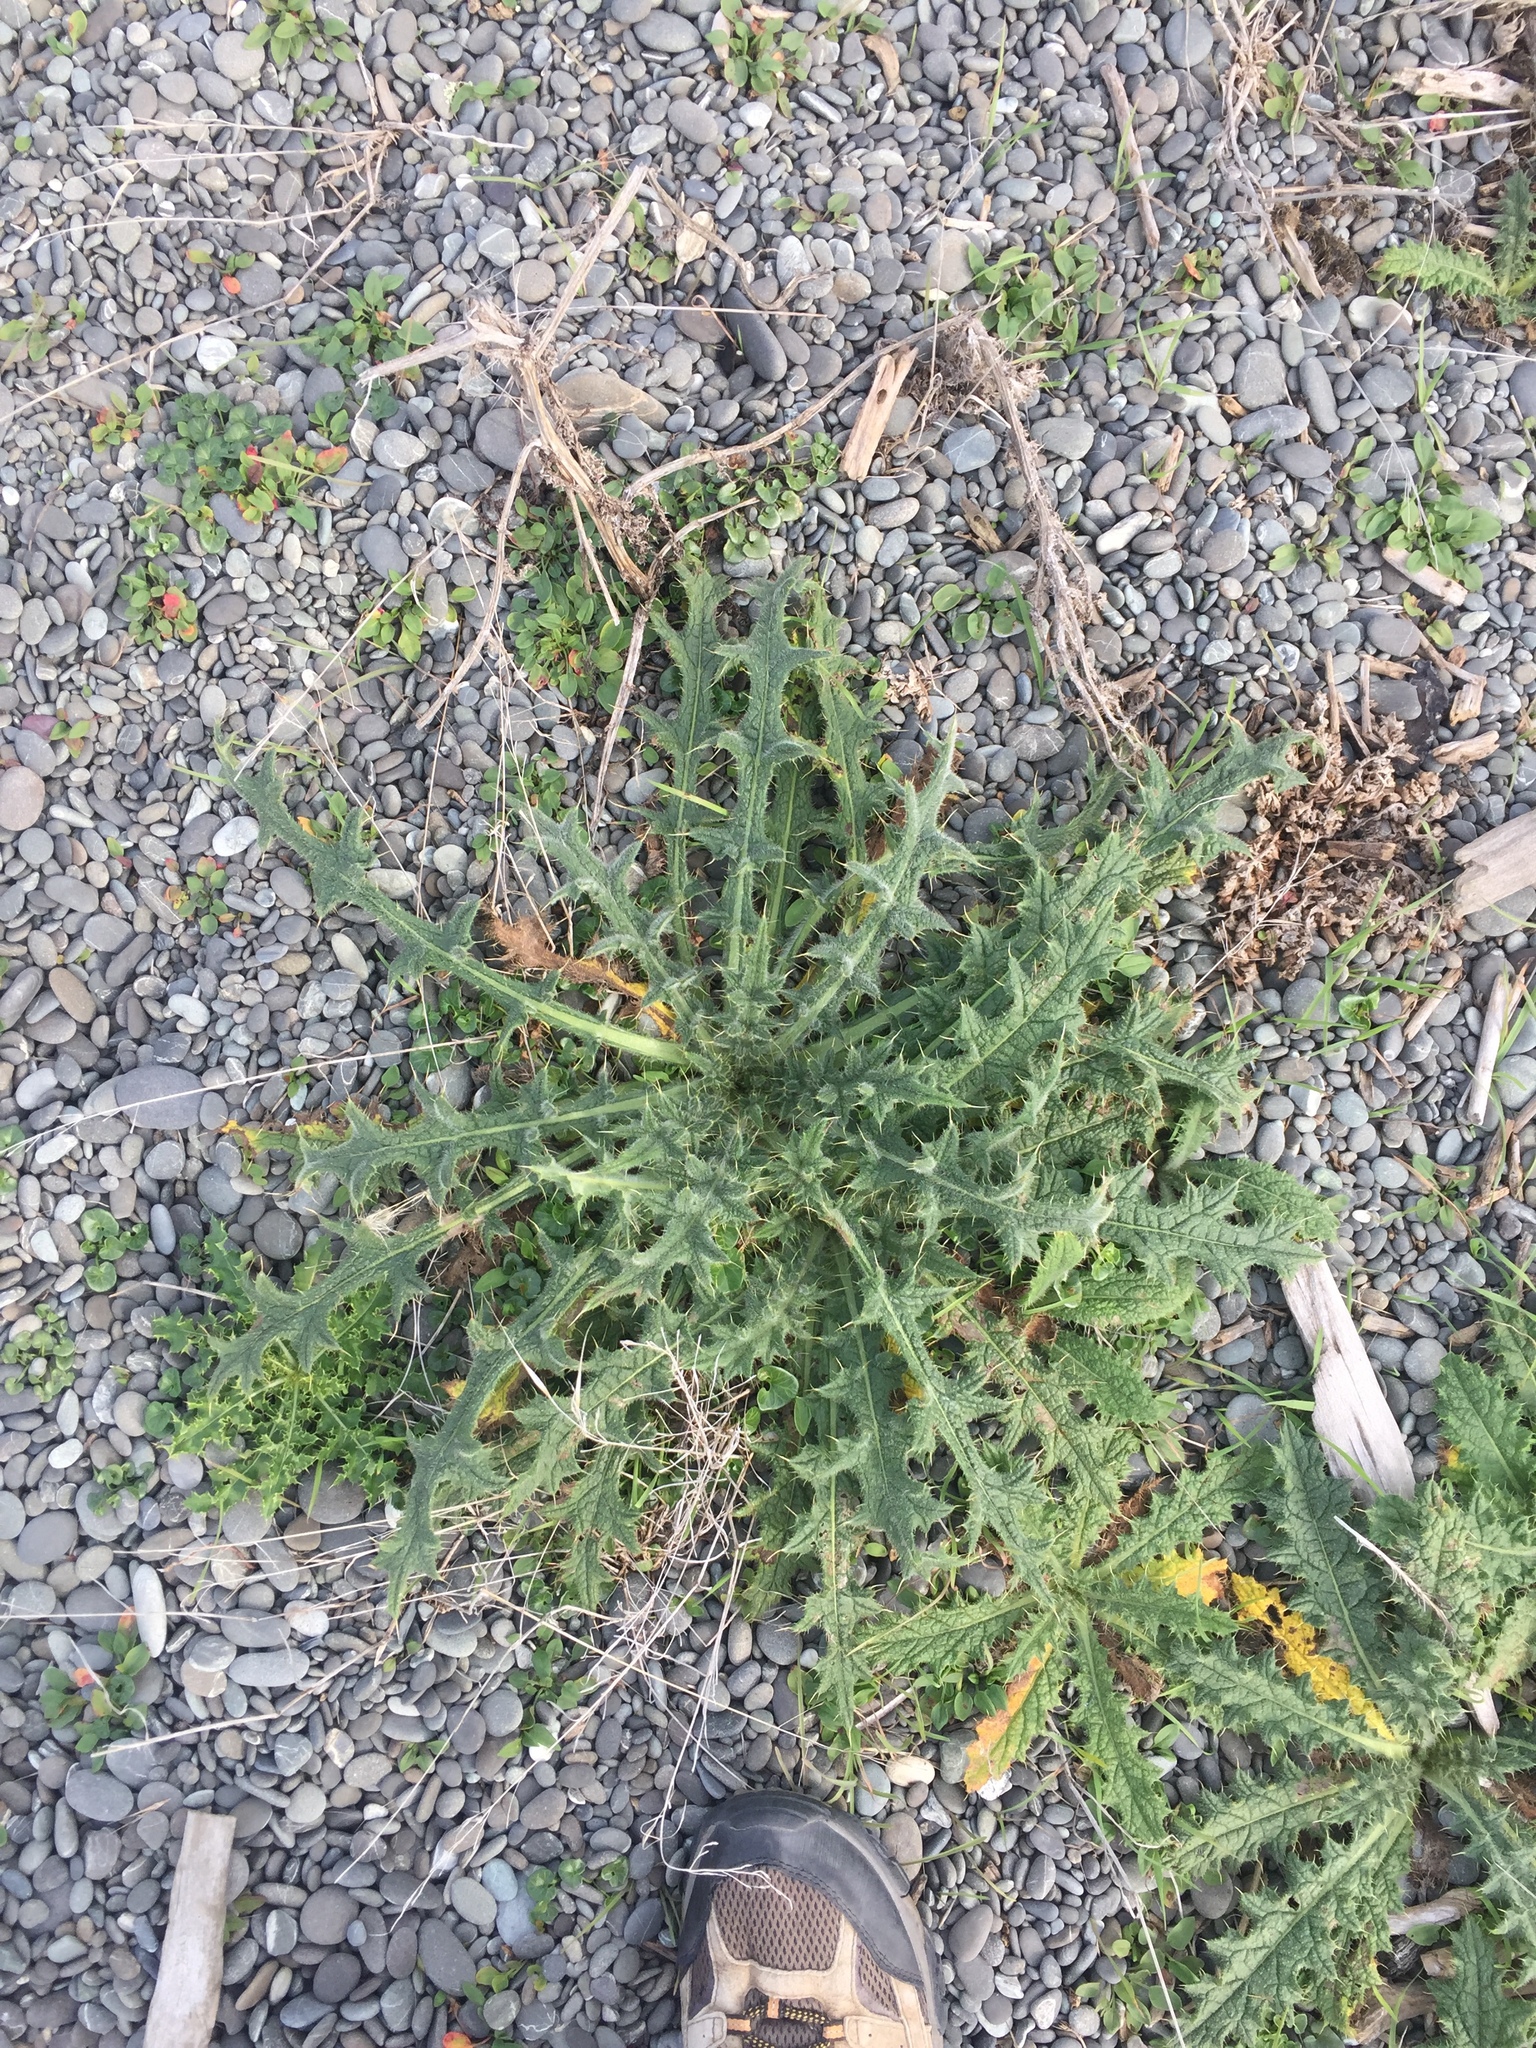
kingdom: Plantae
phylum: Tracheophyta
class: Magnoliopsida
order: Asterales
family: Asteraceae
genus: Cirsium
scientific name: Cirsium vulgare
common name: Bull thistle
